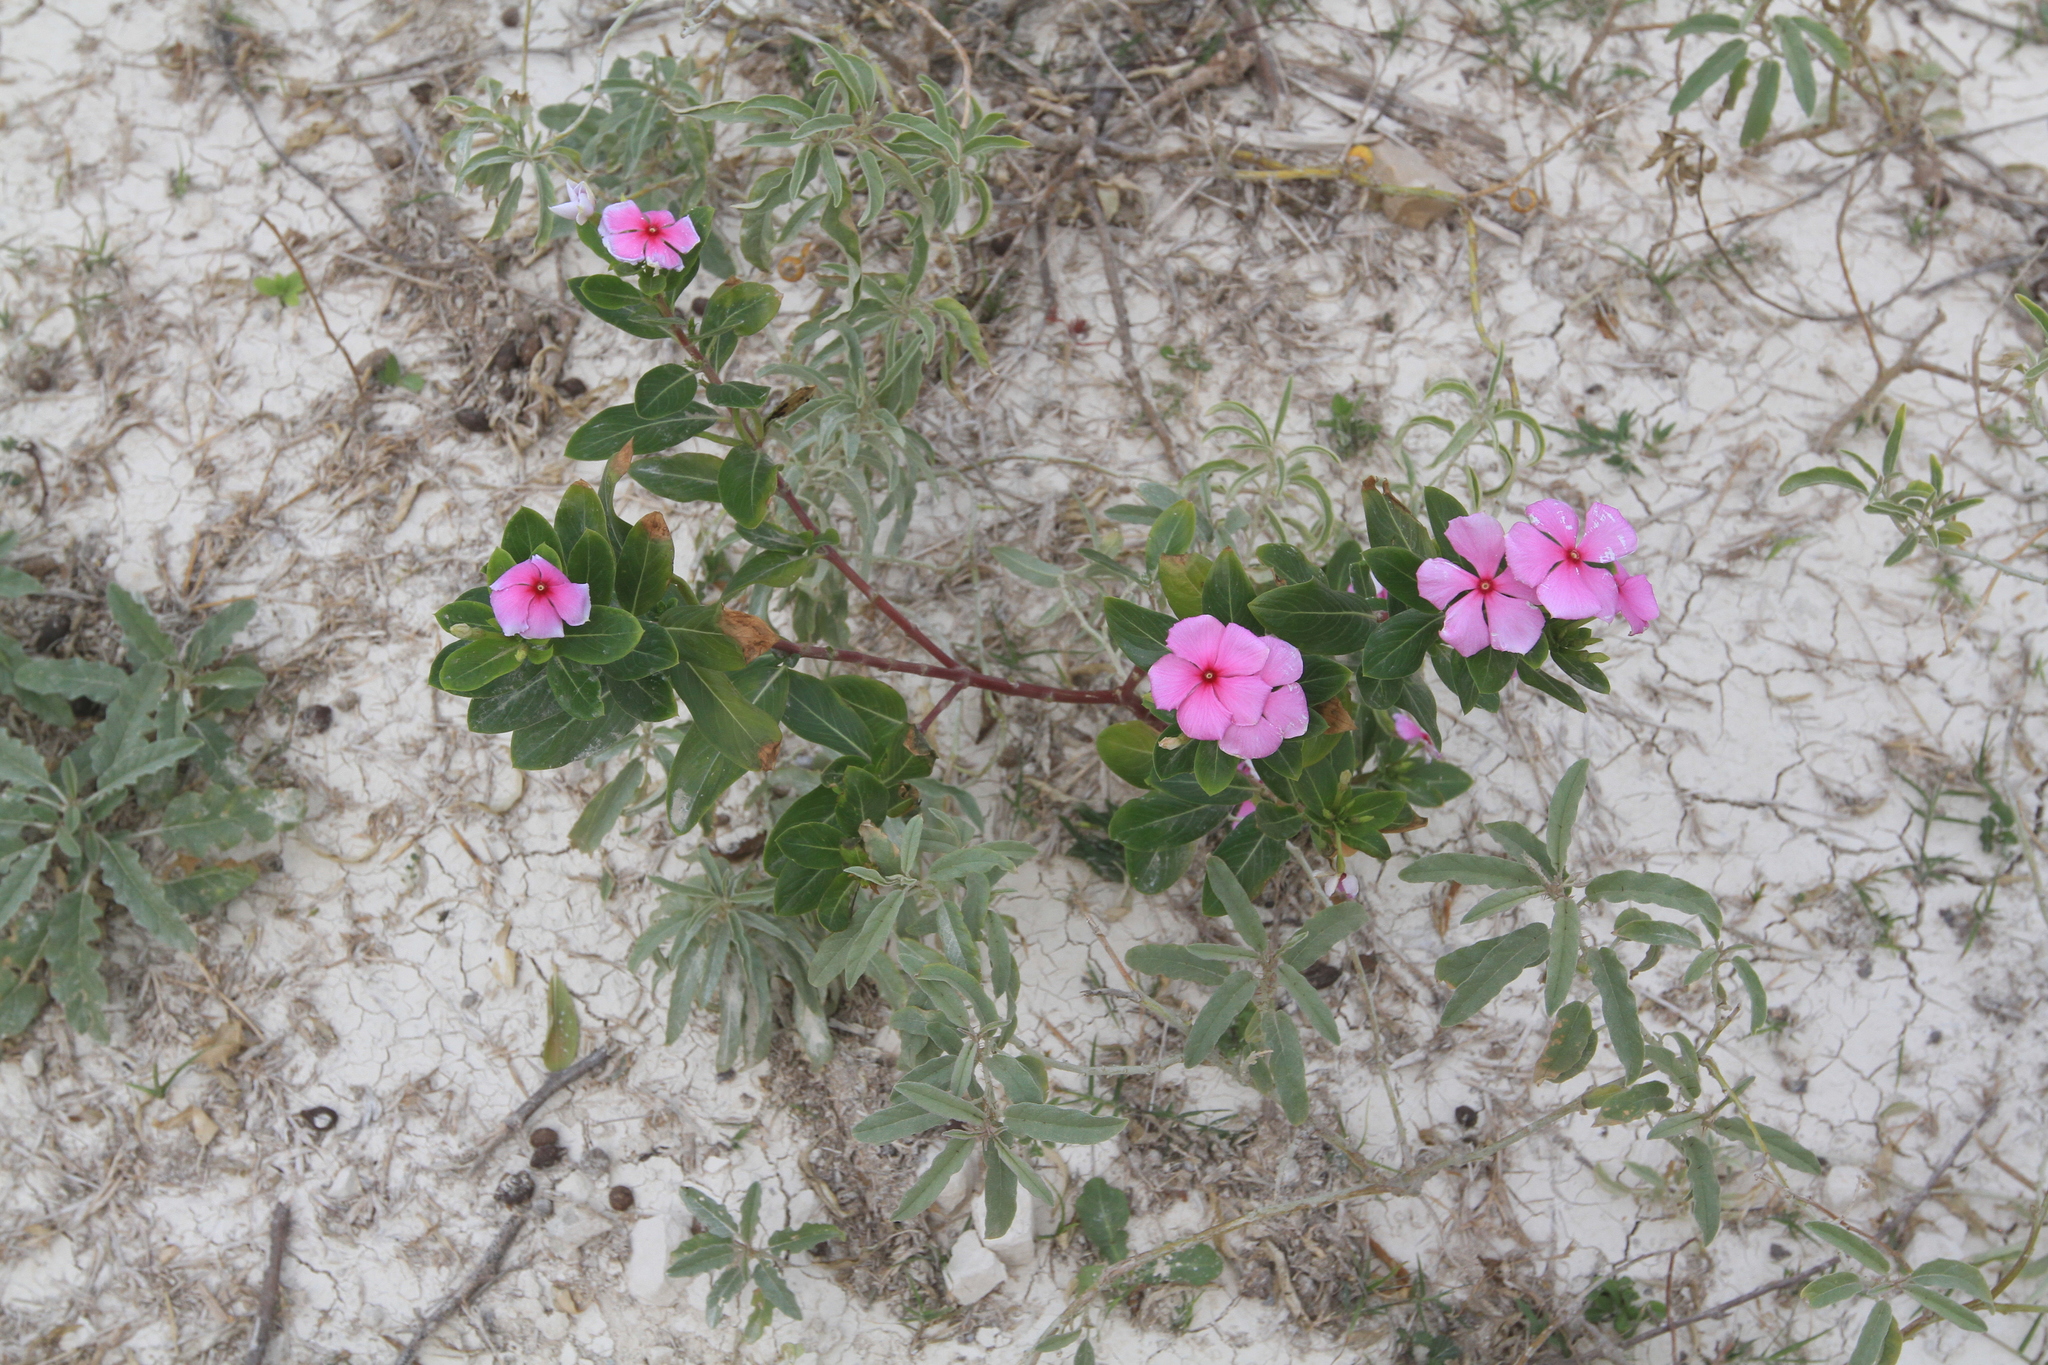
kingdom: Plantae
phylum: Tracheophyta
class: Magnoliopsida
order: Gentianales
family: Apocynaceae
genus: Catharanthus
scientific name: Catharanthus roseus
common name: Madagascar periwinkle
